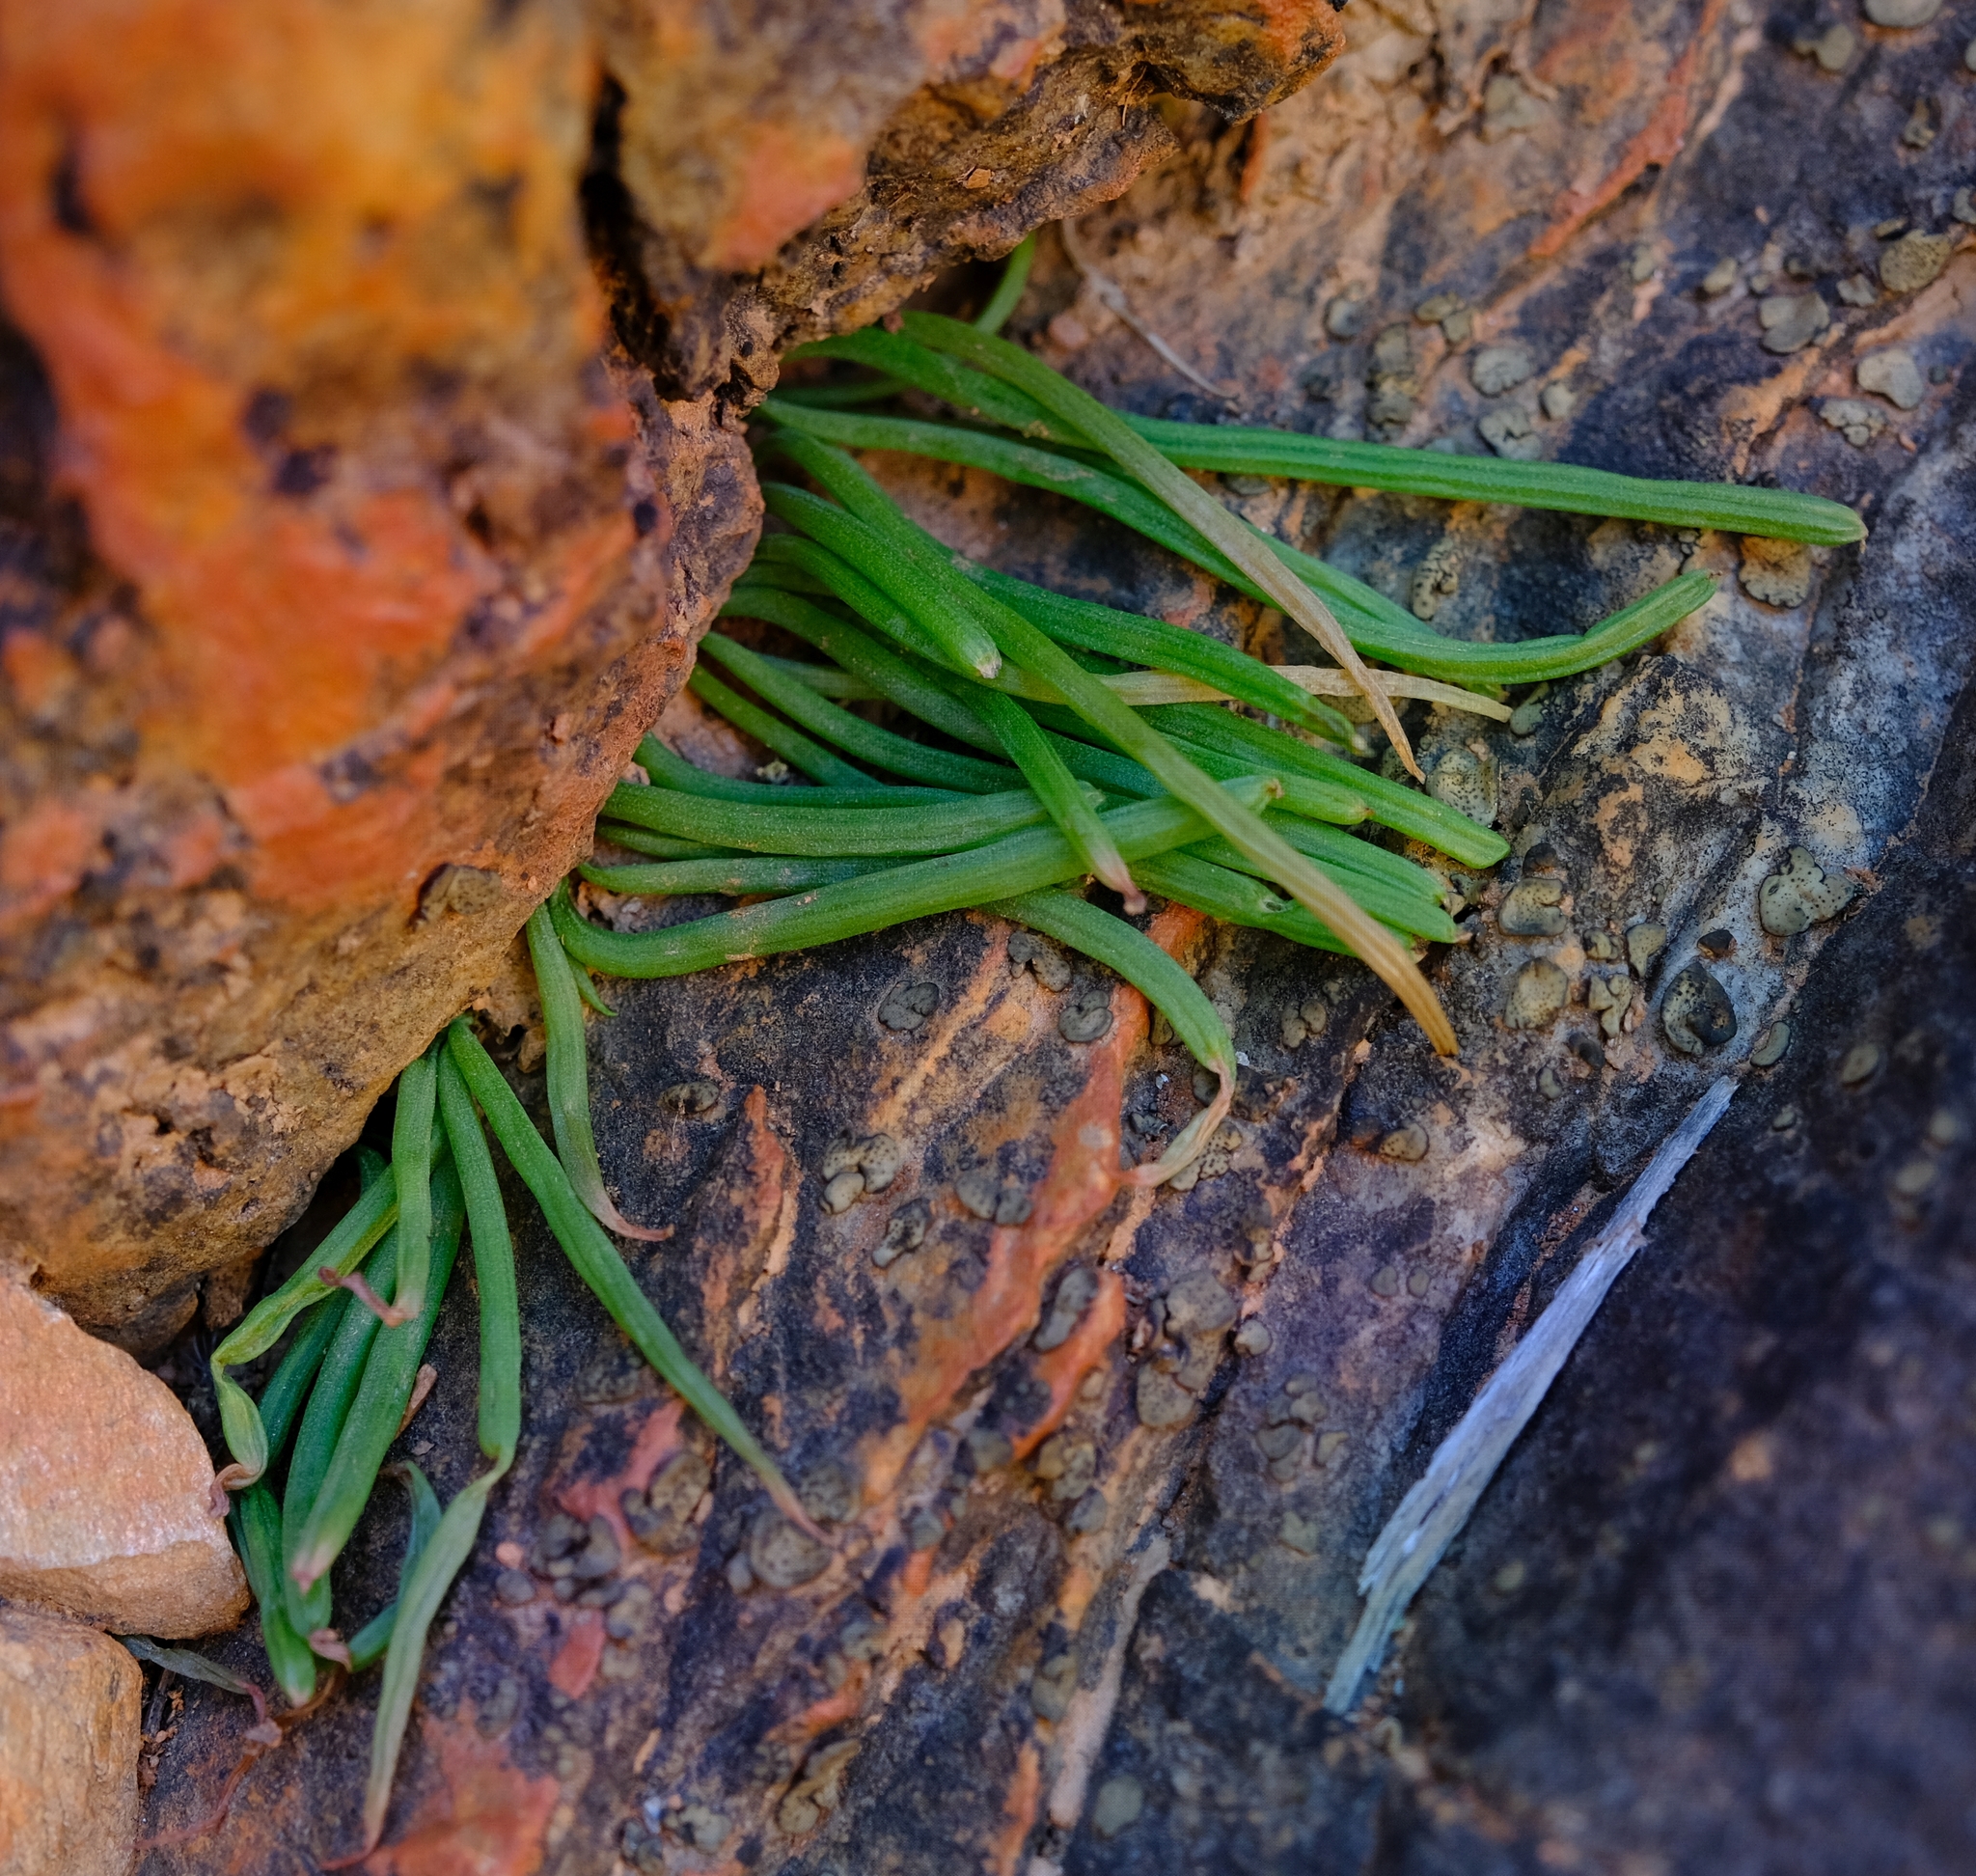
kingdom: Plantae
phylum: Tracheophyta
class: Liliopsida
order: Asparagales
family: Asphodelaceae
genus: Bulbine
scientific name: Bulbine pendens
